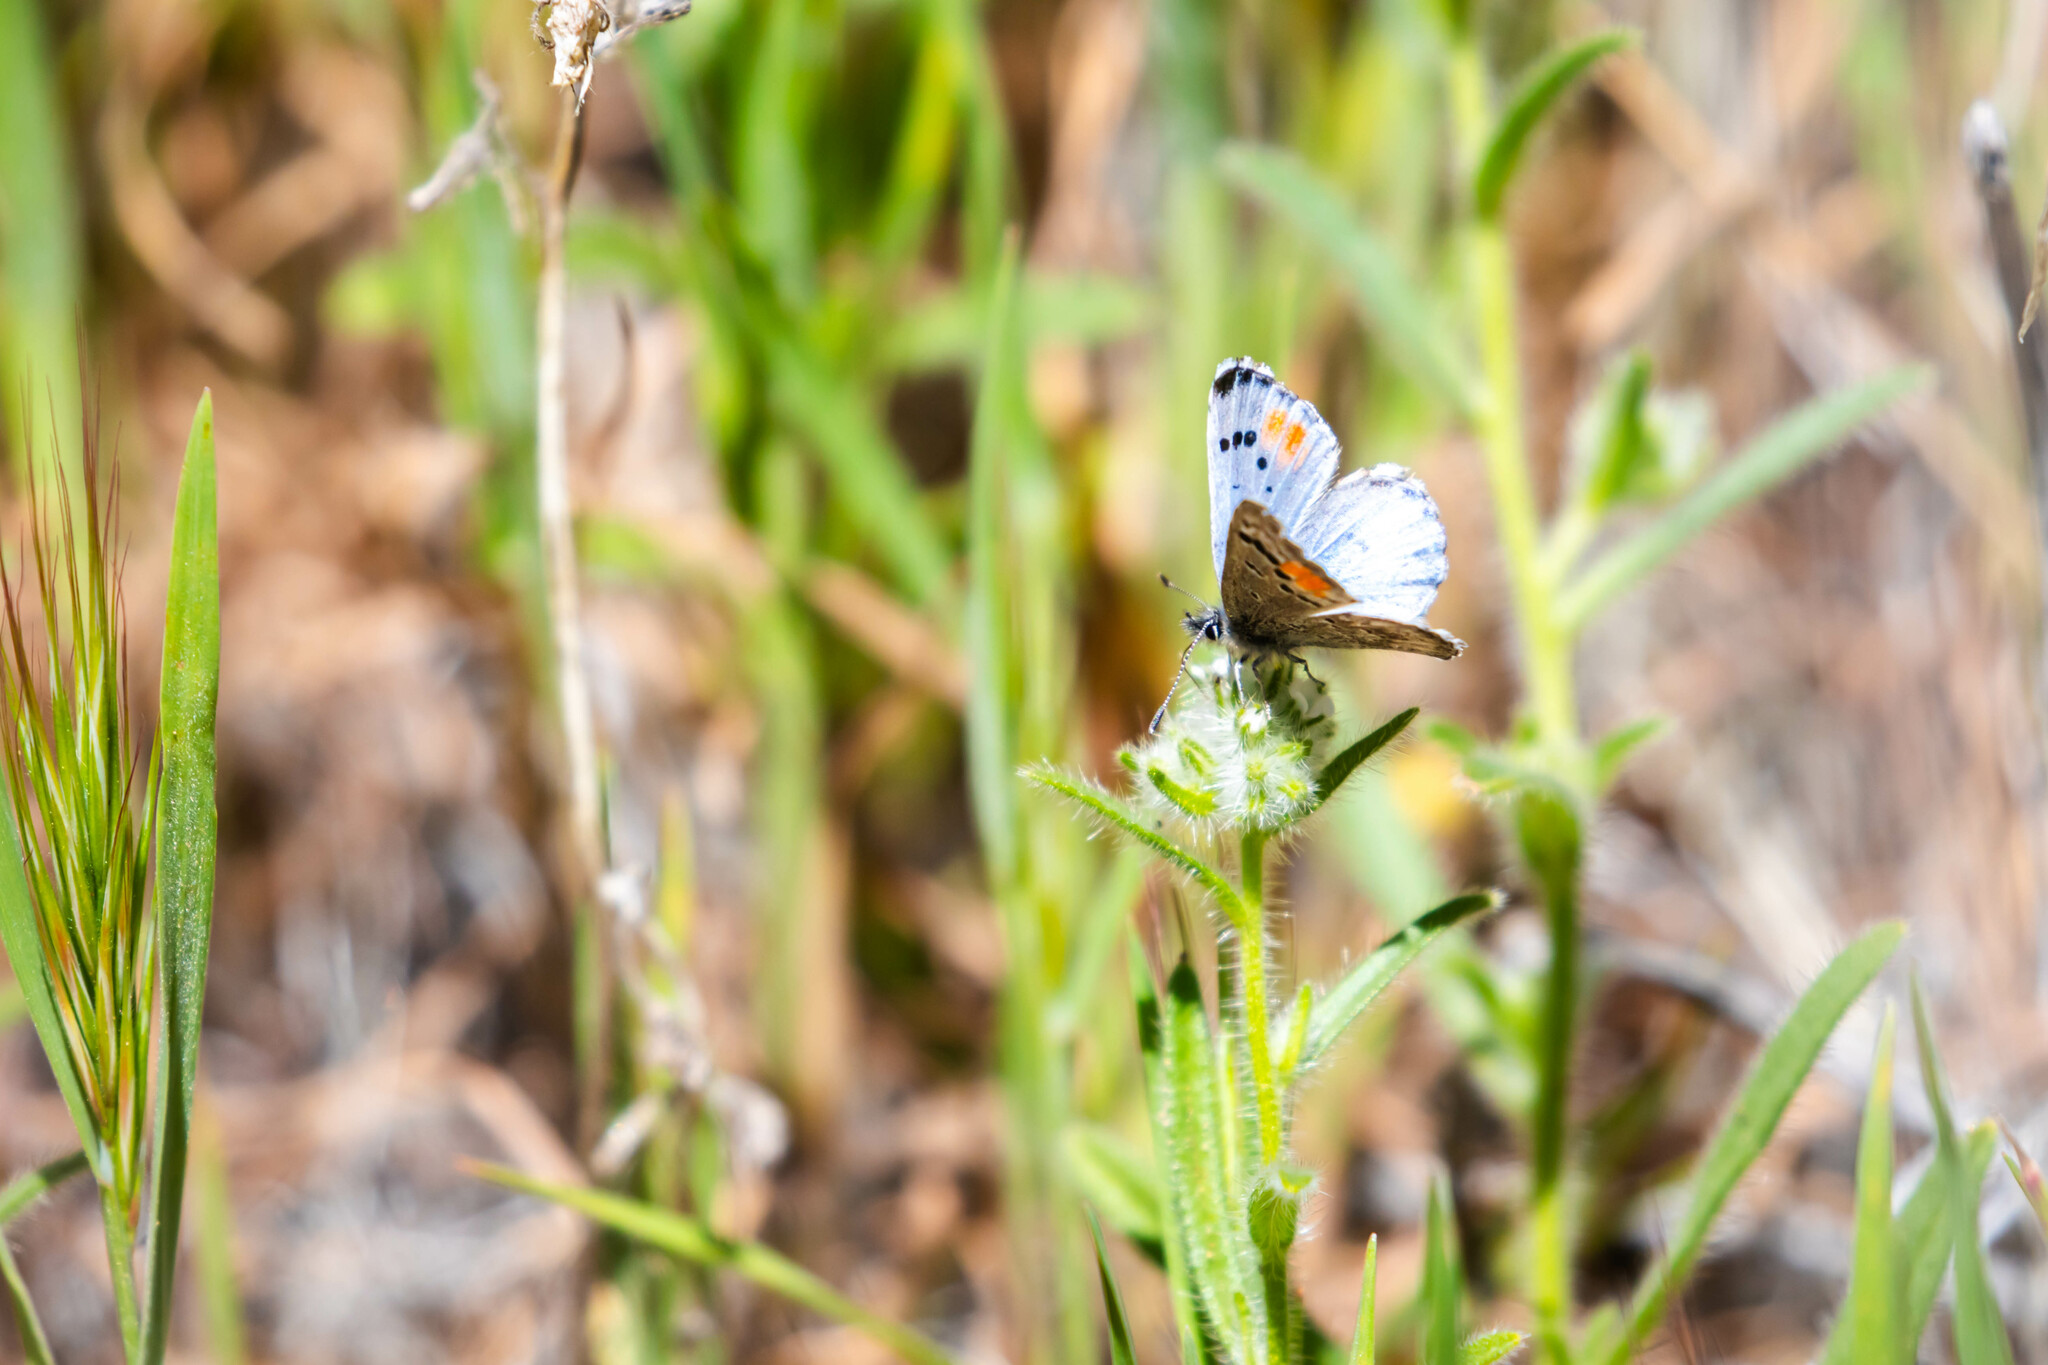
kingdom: Animalia
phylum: Arthropoda
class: Insecta
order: Lepidoptera
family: Lycaenidae
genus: Philotes
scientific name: Philotes sonorensis
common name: Sonoran blue
